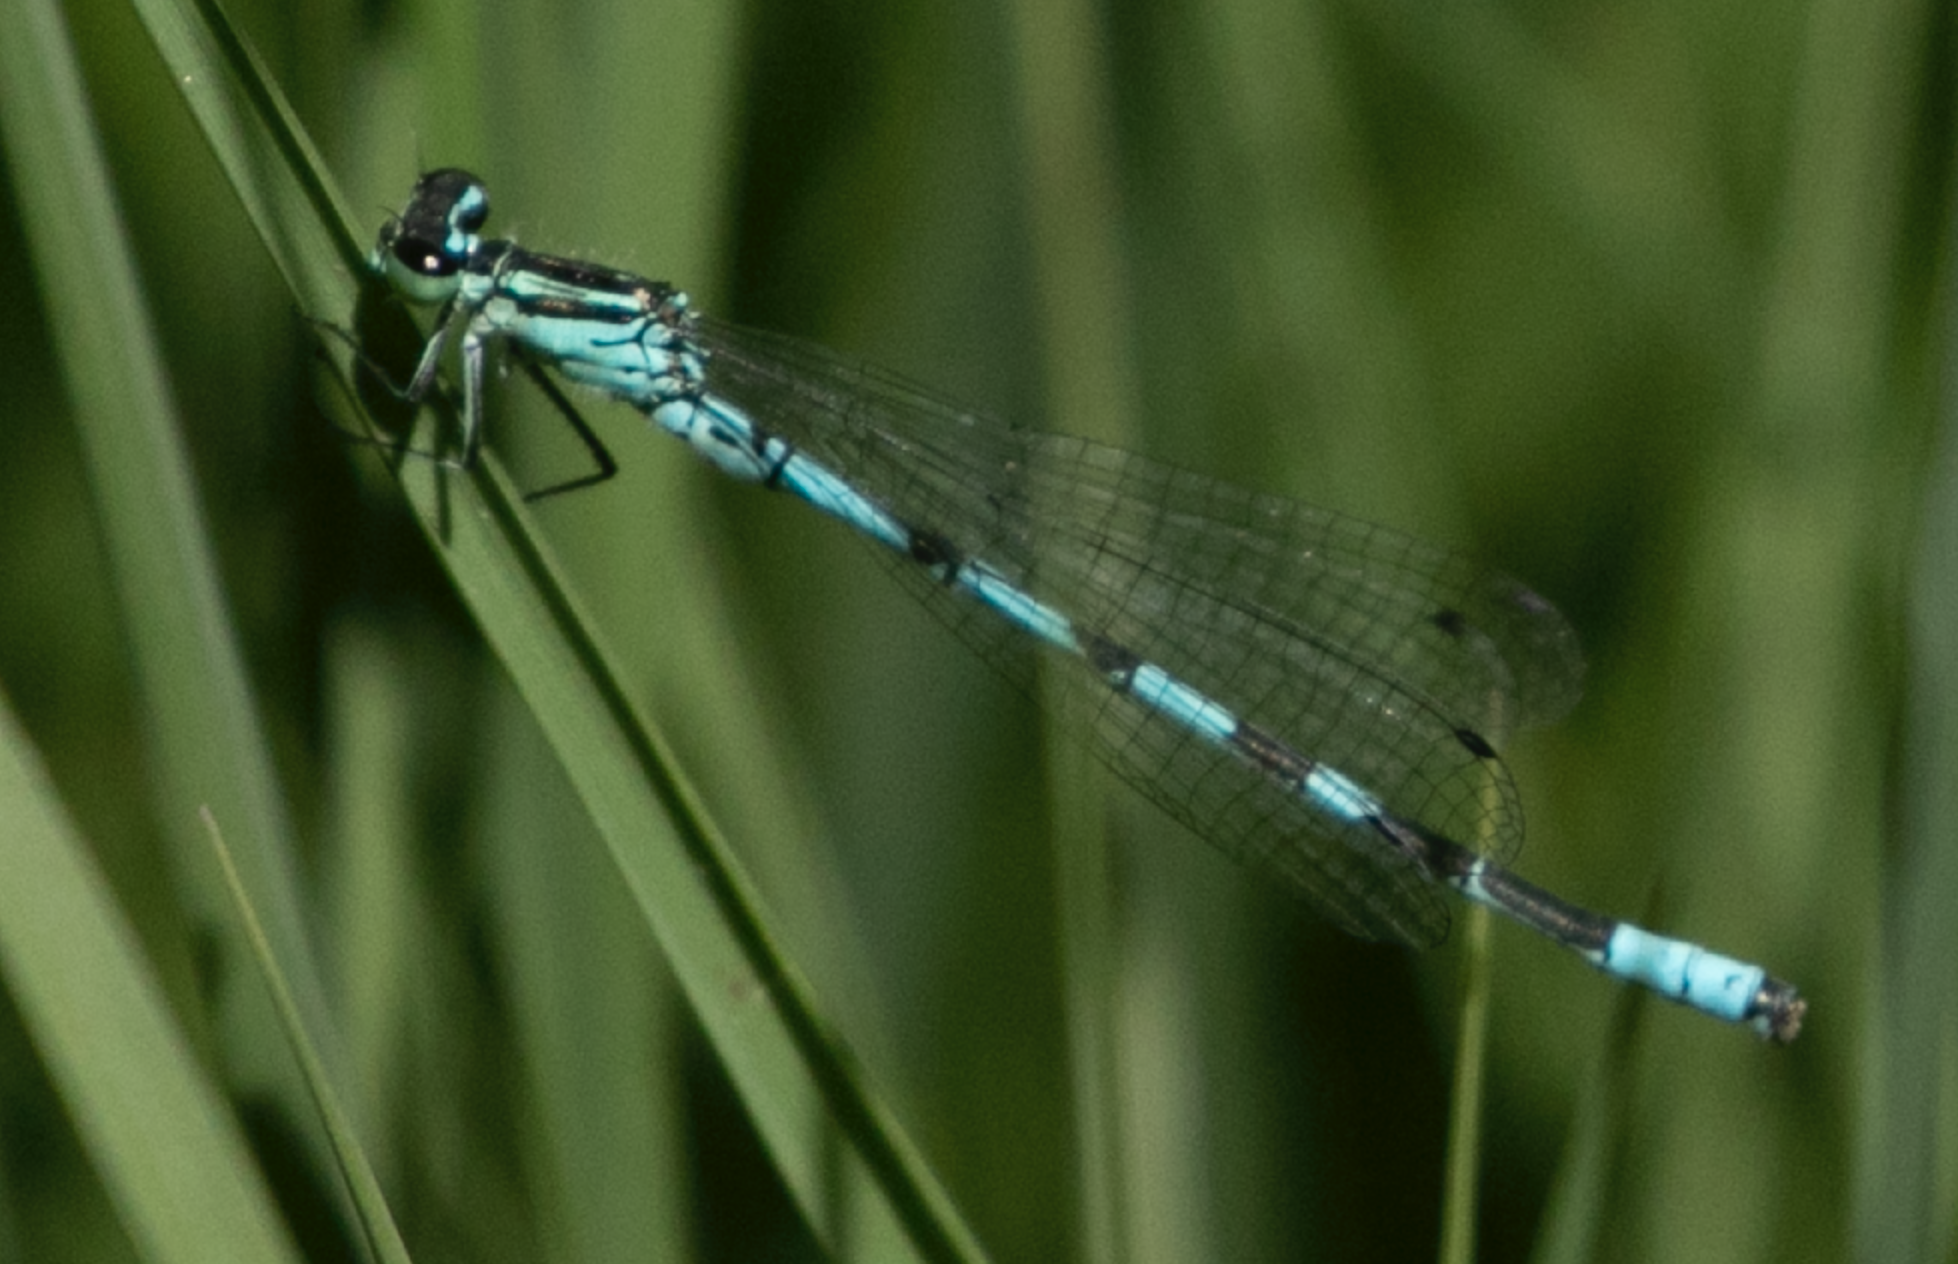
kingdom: Animalia
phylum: Arthropoda
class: Insecta
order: Odonata
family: Coenagrionidae
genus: Coenagrion
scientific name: Coenagrion hastulatum
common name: Spearhead bluet
